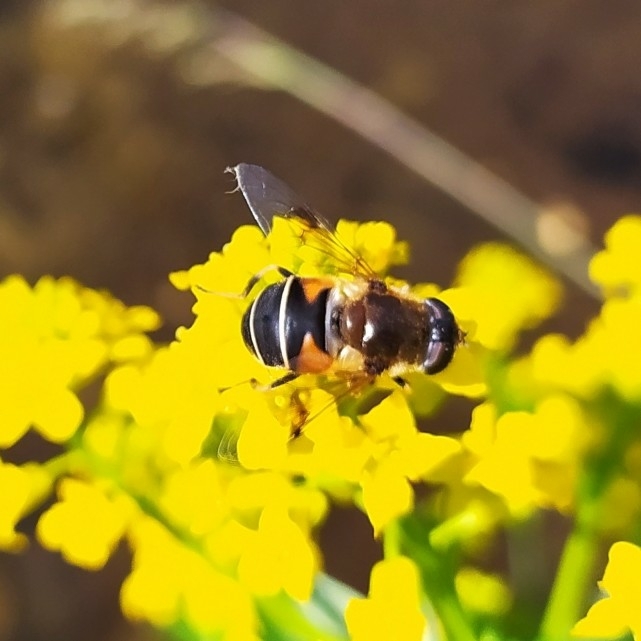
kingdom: Animalia
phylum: Arthropoda
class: Insecta
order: Diptera
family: Syrphidae
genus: Eristalis
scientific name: Eristalis obscura
